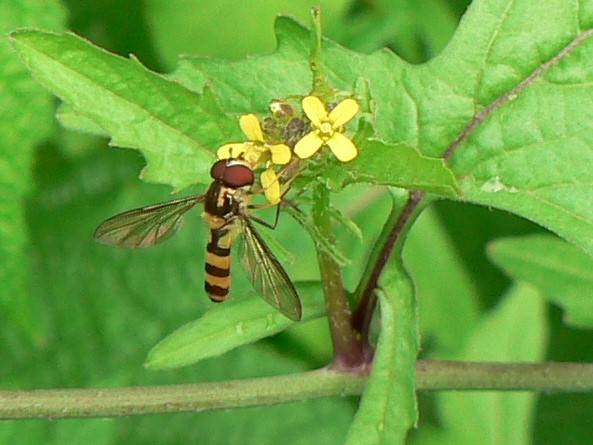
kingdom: Animalia
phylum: Arthropoda
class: Insecta
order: Diptera
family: Syrphidae
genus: Meliscaeva
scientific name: Meliscaeva cinctella
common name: American thintail fly
